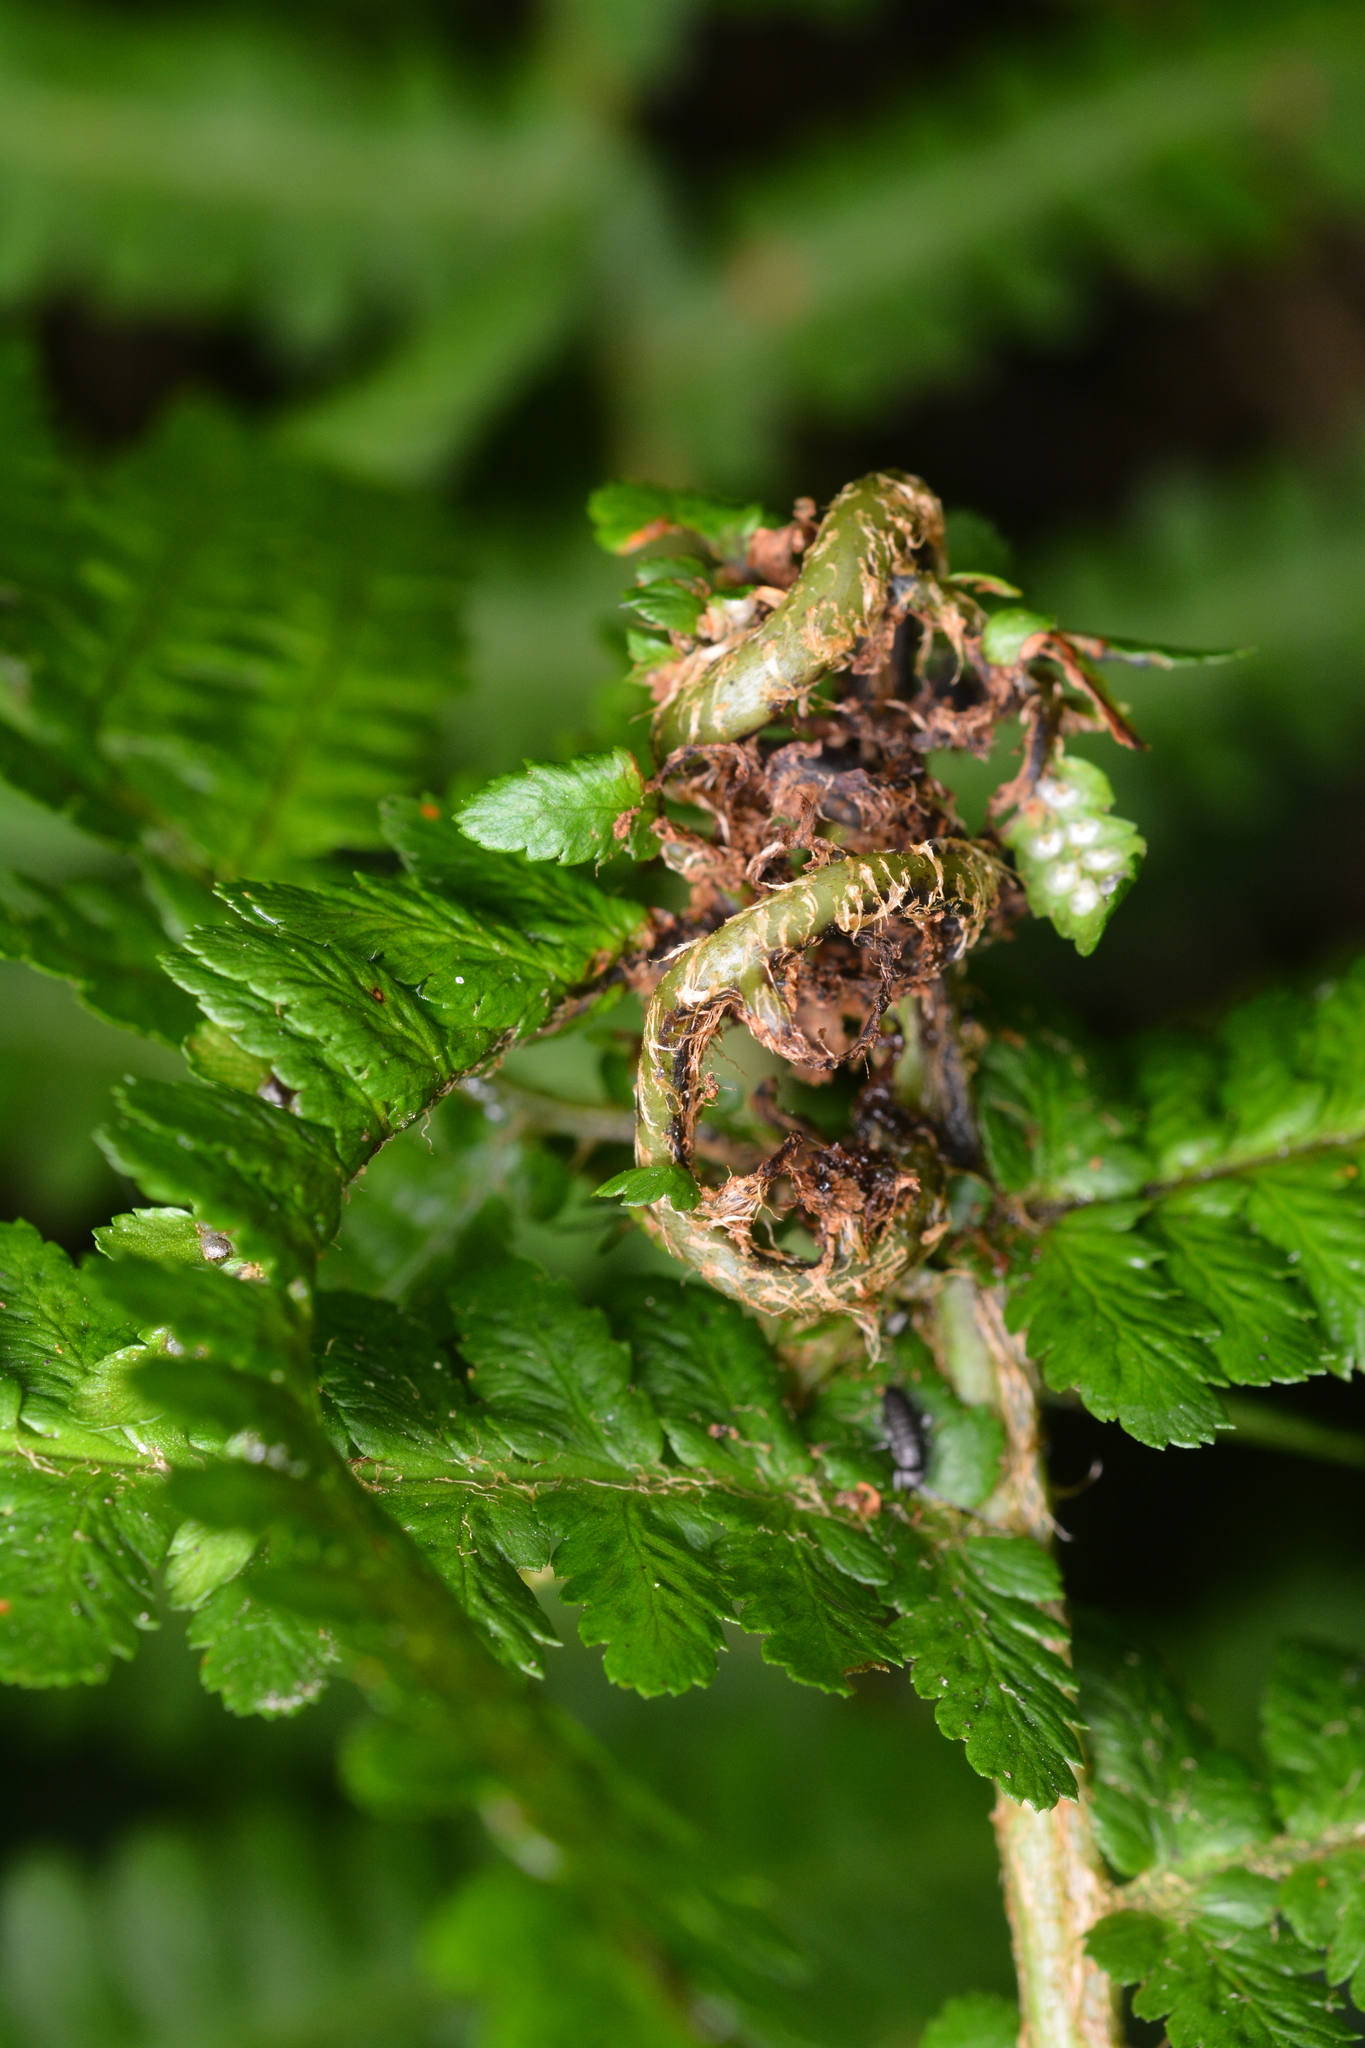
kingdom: Animalia
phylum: Arthropoda
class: Insecta
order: Diptera
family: Anthomyiidae
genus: Chirosia
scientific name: Chirosia betuleti
